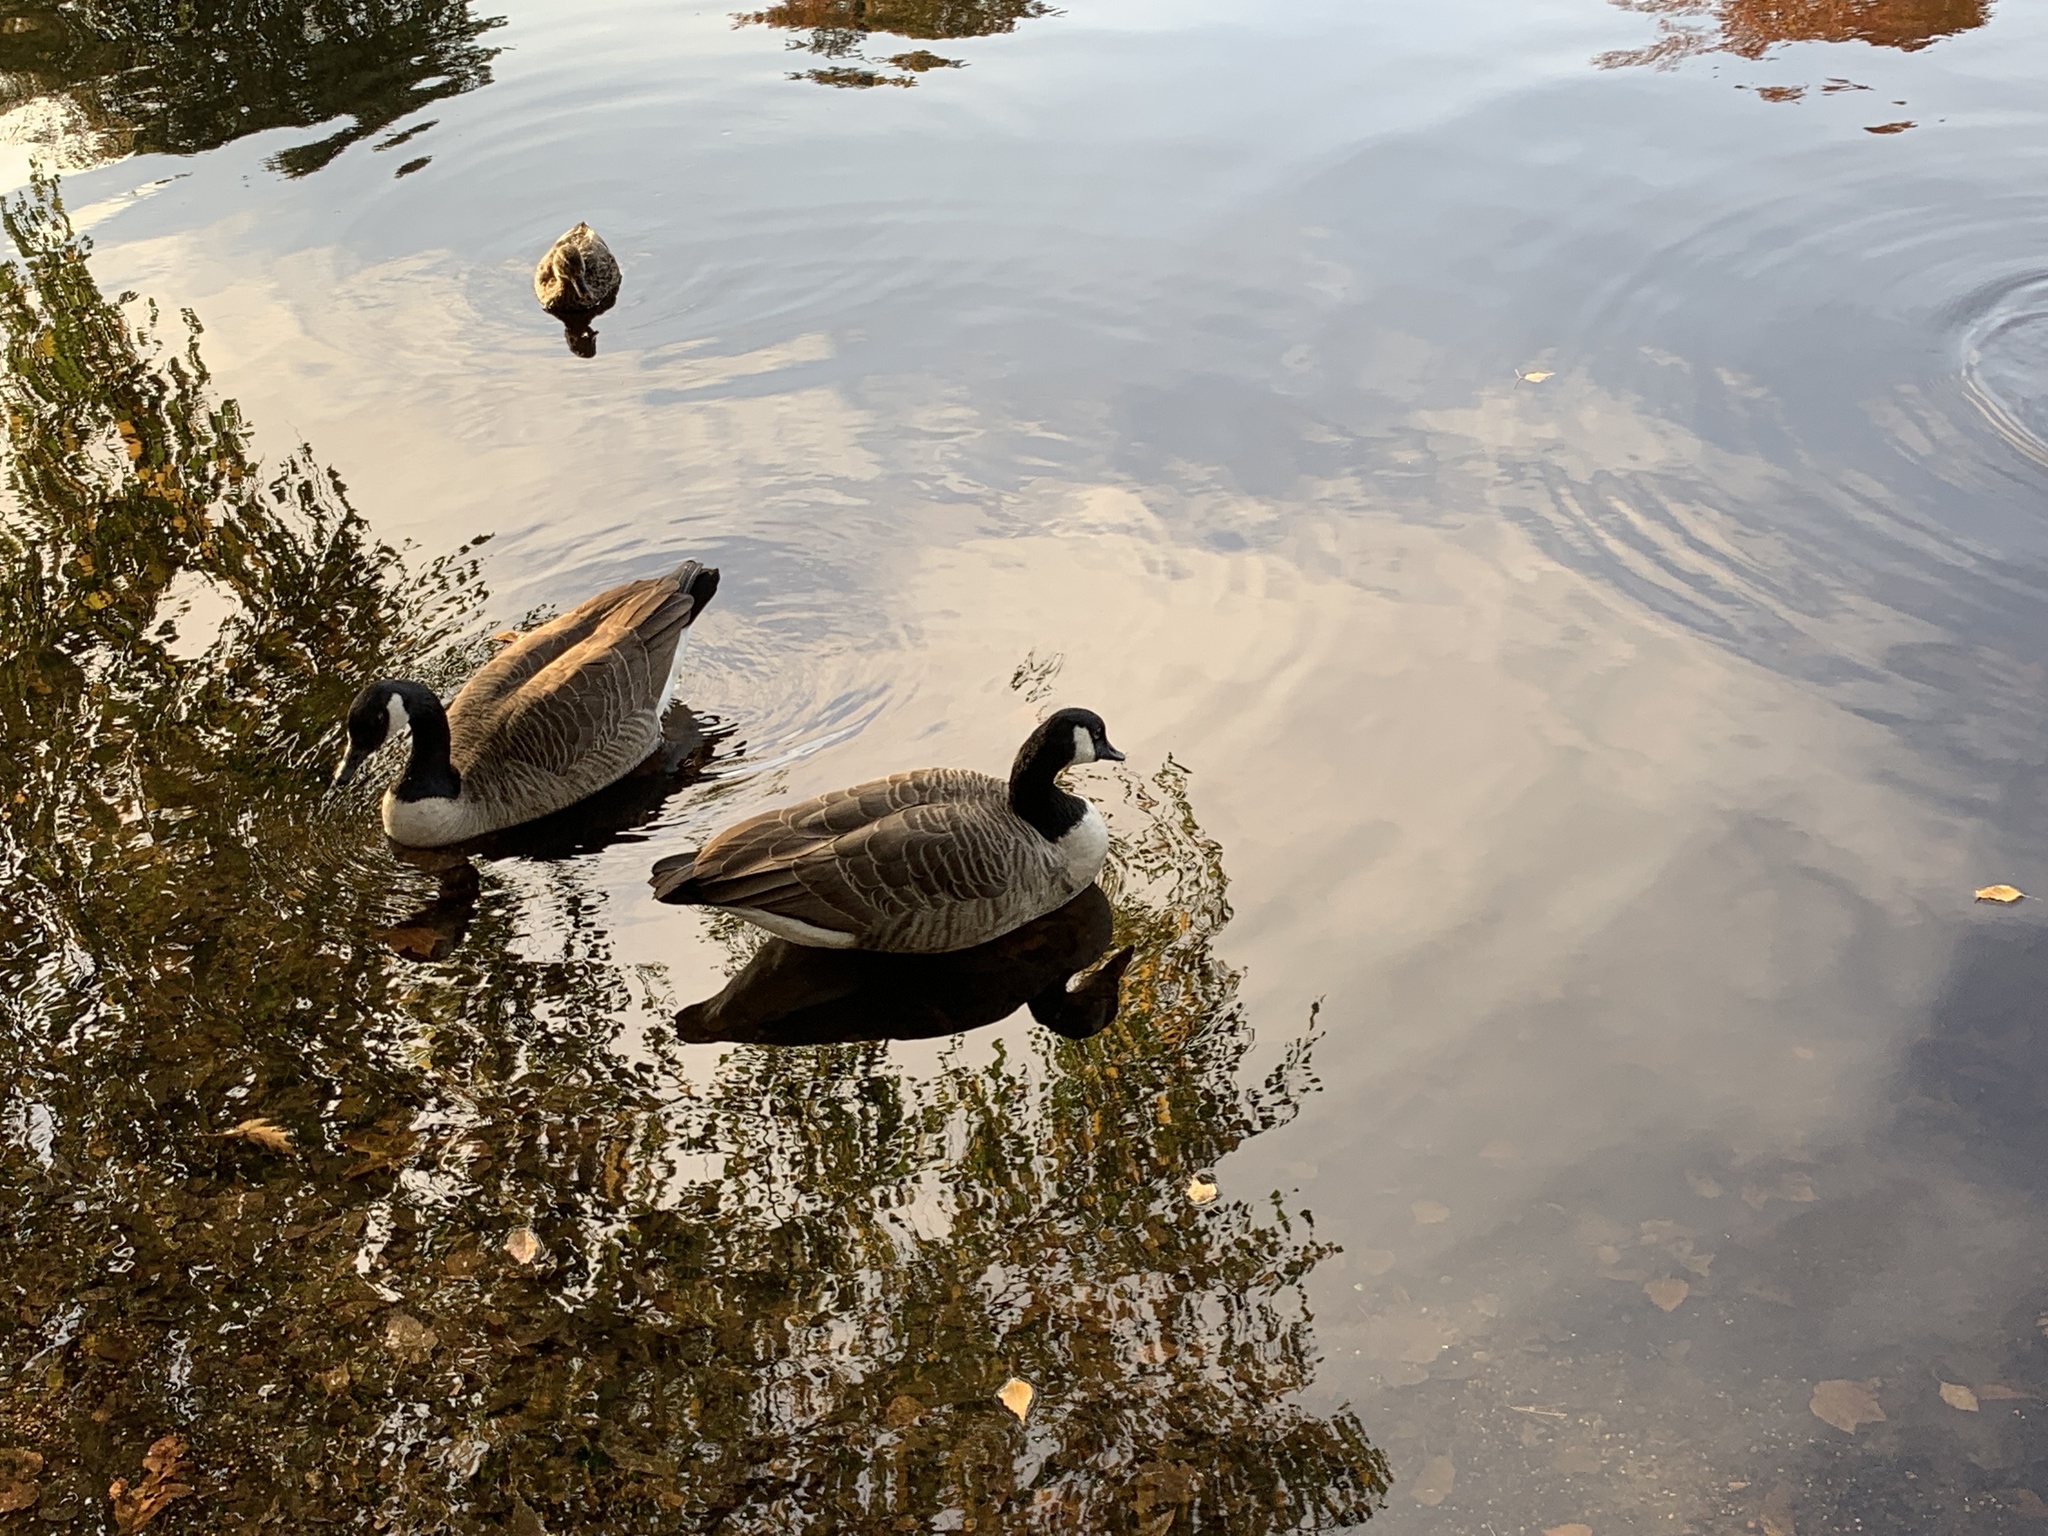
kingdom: Animalia
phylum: Chordata
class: Aves
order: Anseriformes
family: Anatidae
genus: Branta
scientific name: Branta canadensis
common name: Canada goose
